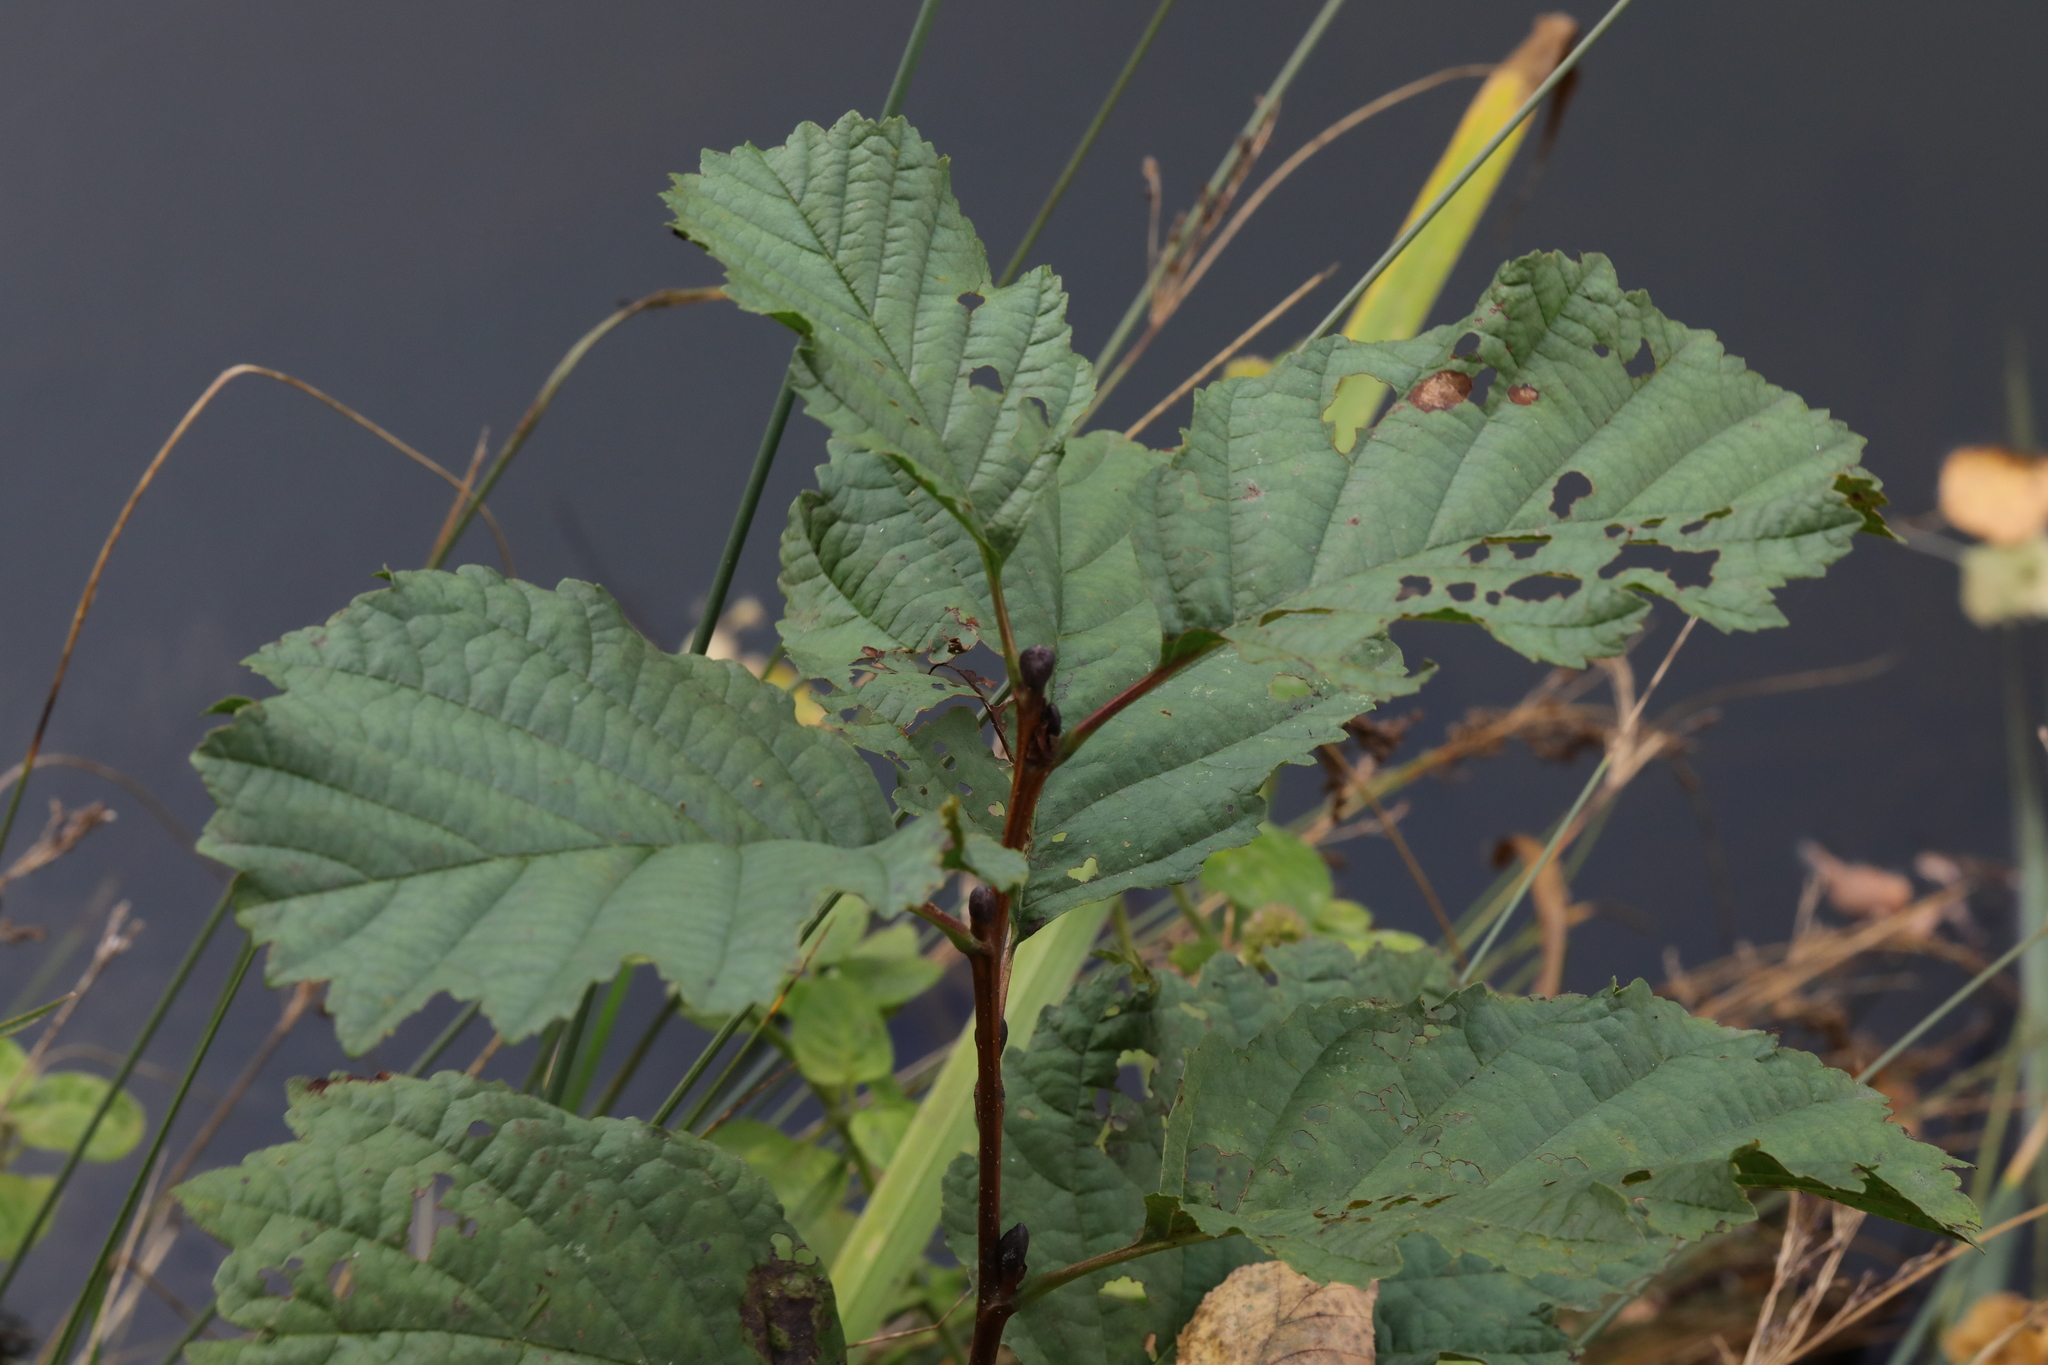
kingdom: Plantae
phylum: Tracheophyta
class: Magnoliopsida
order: Fagales
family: Betulaceae
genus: Alnus
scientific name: Alnus glutinosa
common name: Black alder
